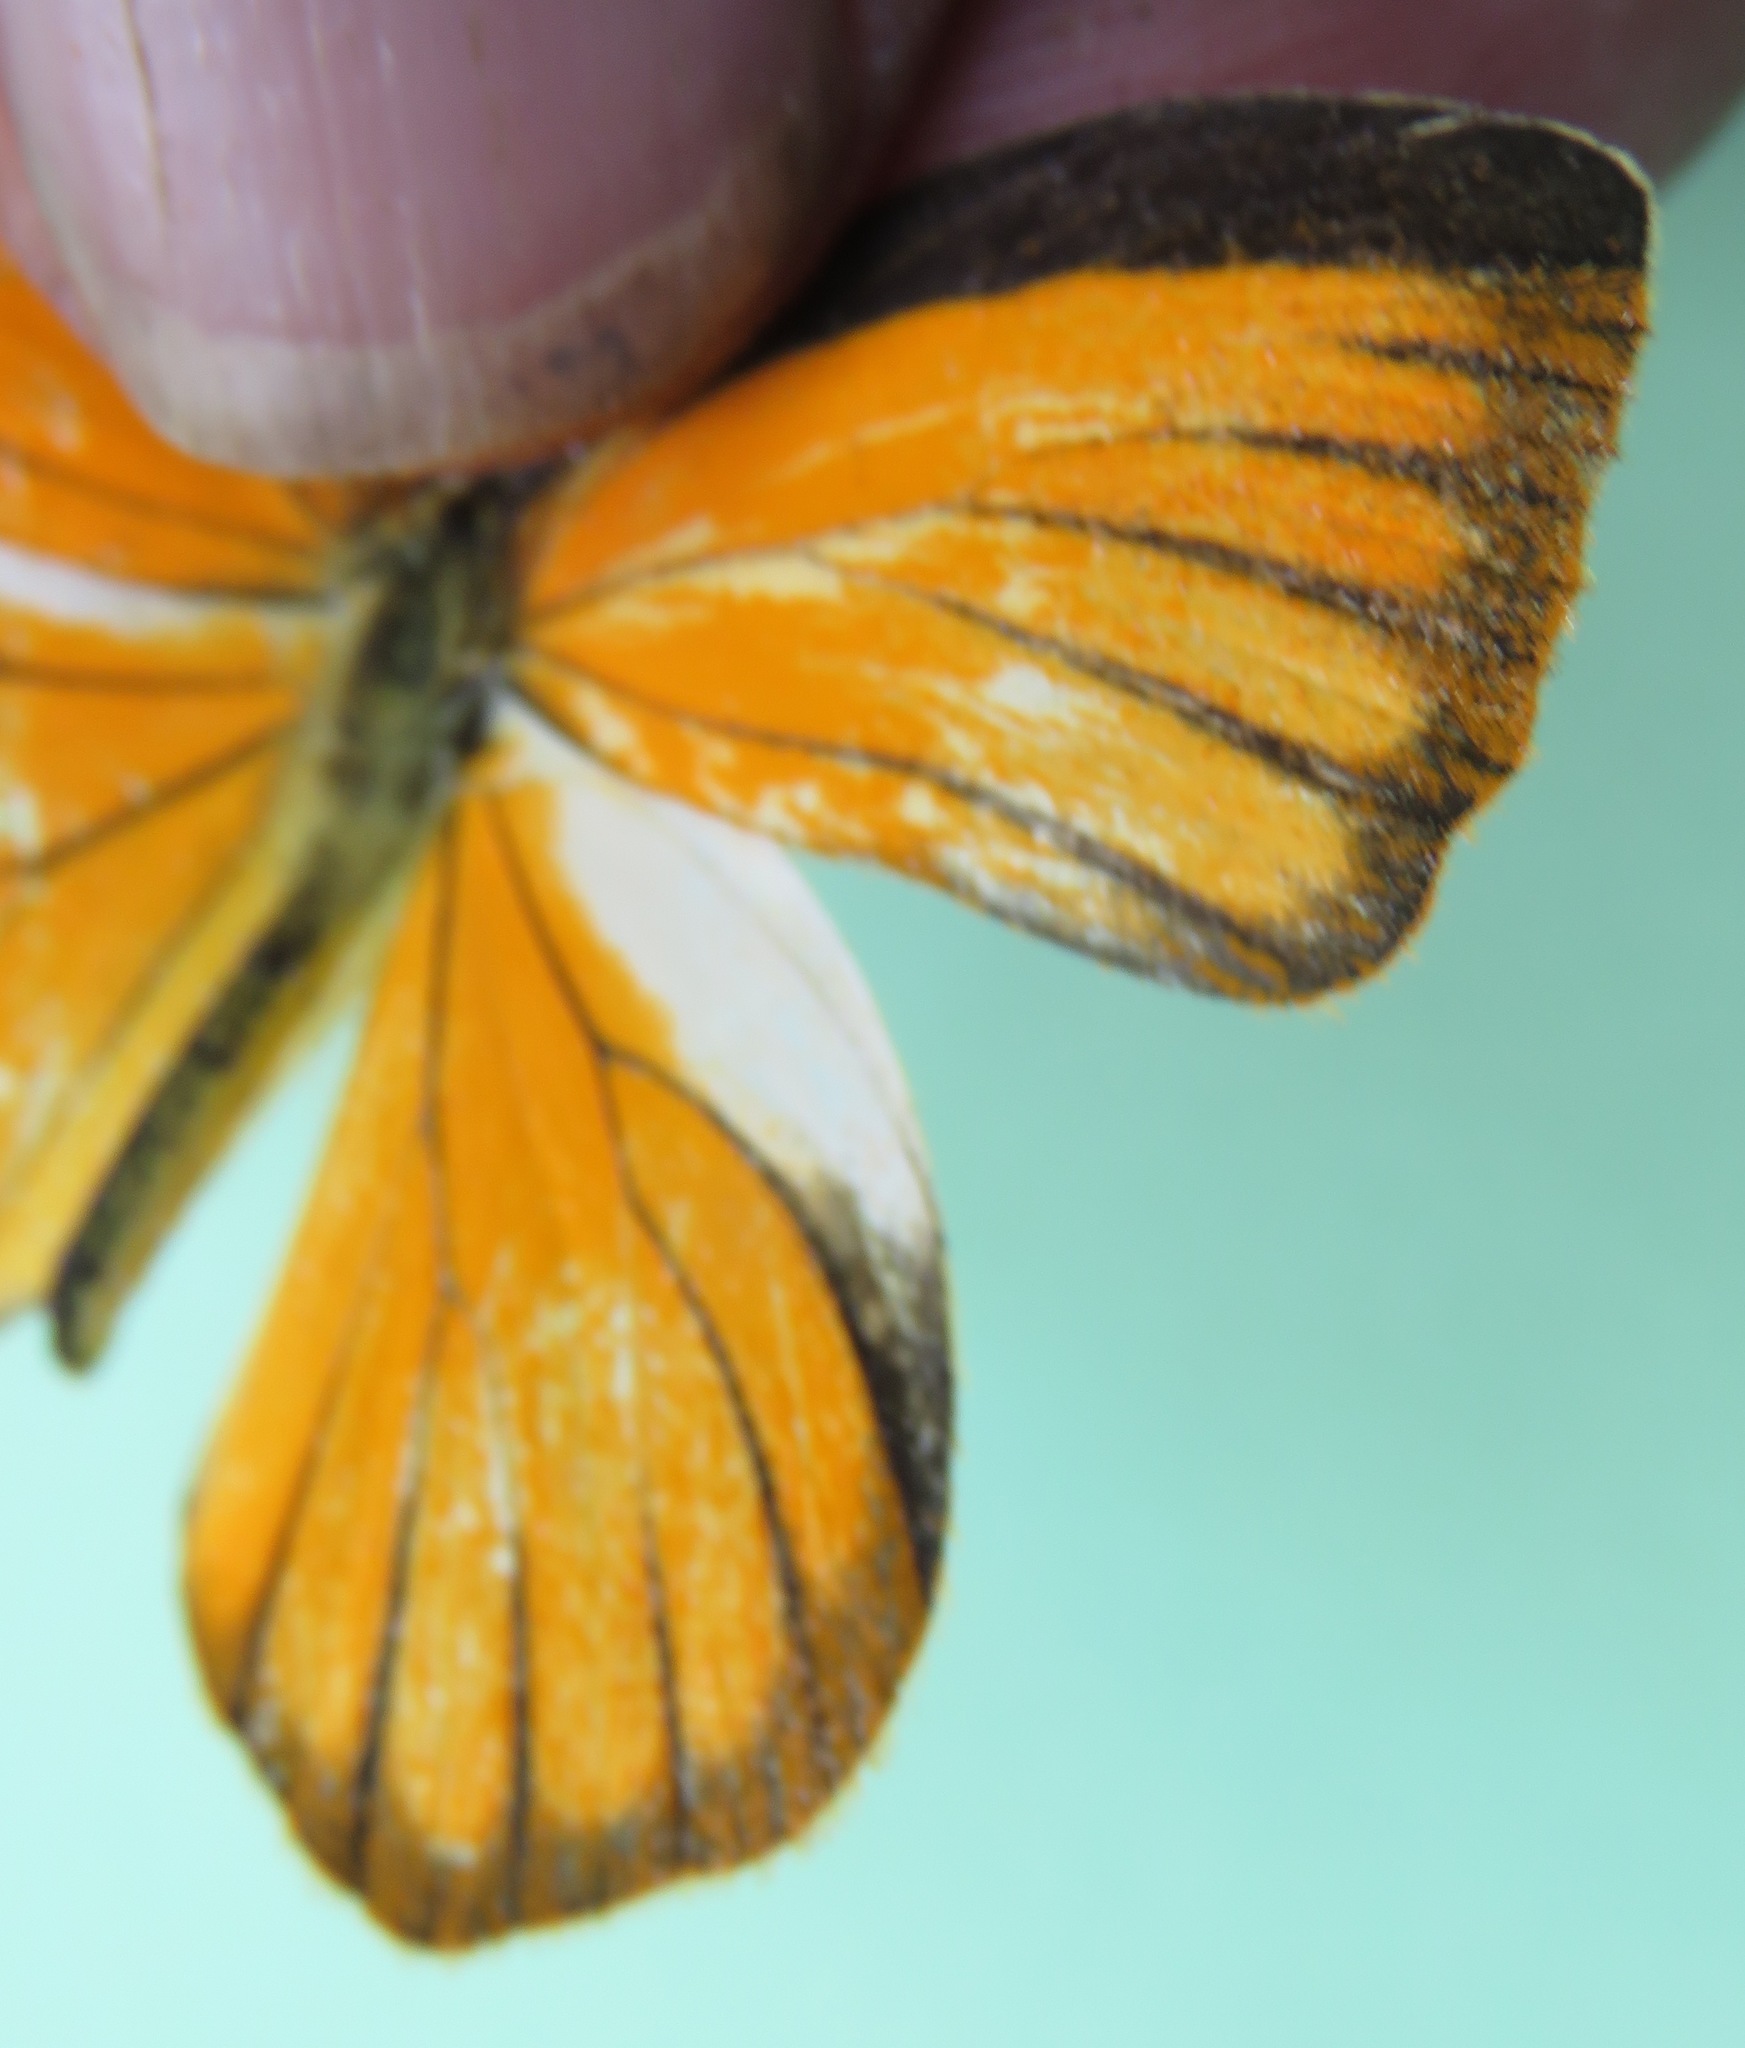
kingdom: Animalia
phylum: Arthropoda
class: Insecta
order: Lepidoptera
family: Pieridae
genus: Pyrisitia
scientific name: Pyrisitia proterpia
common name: Tailed orange
